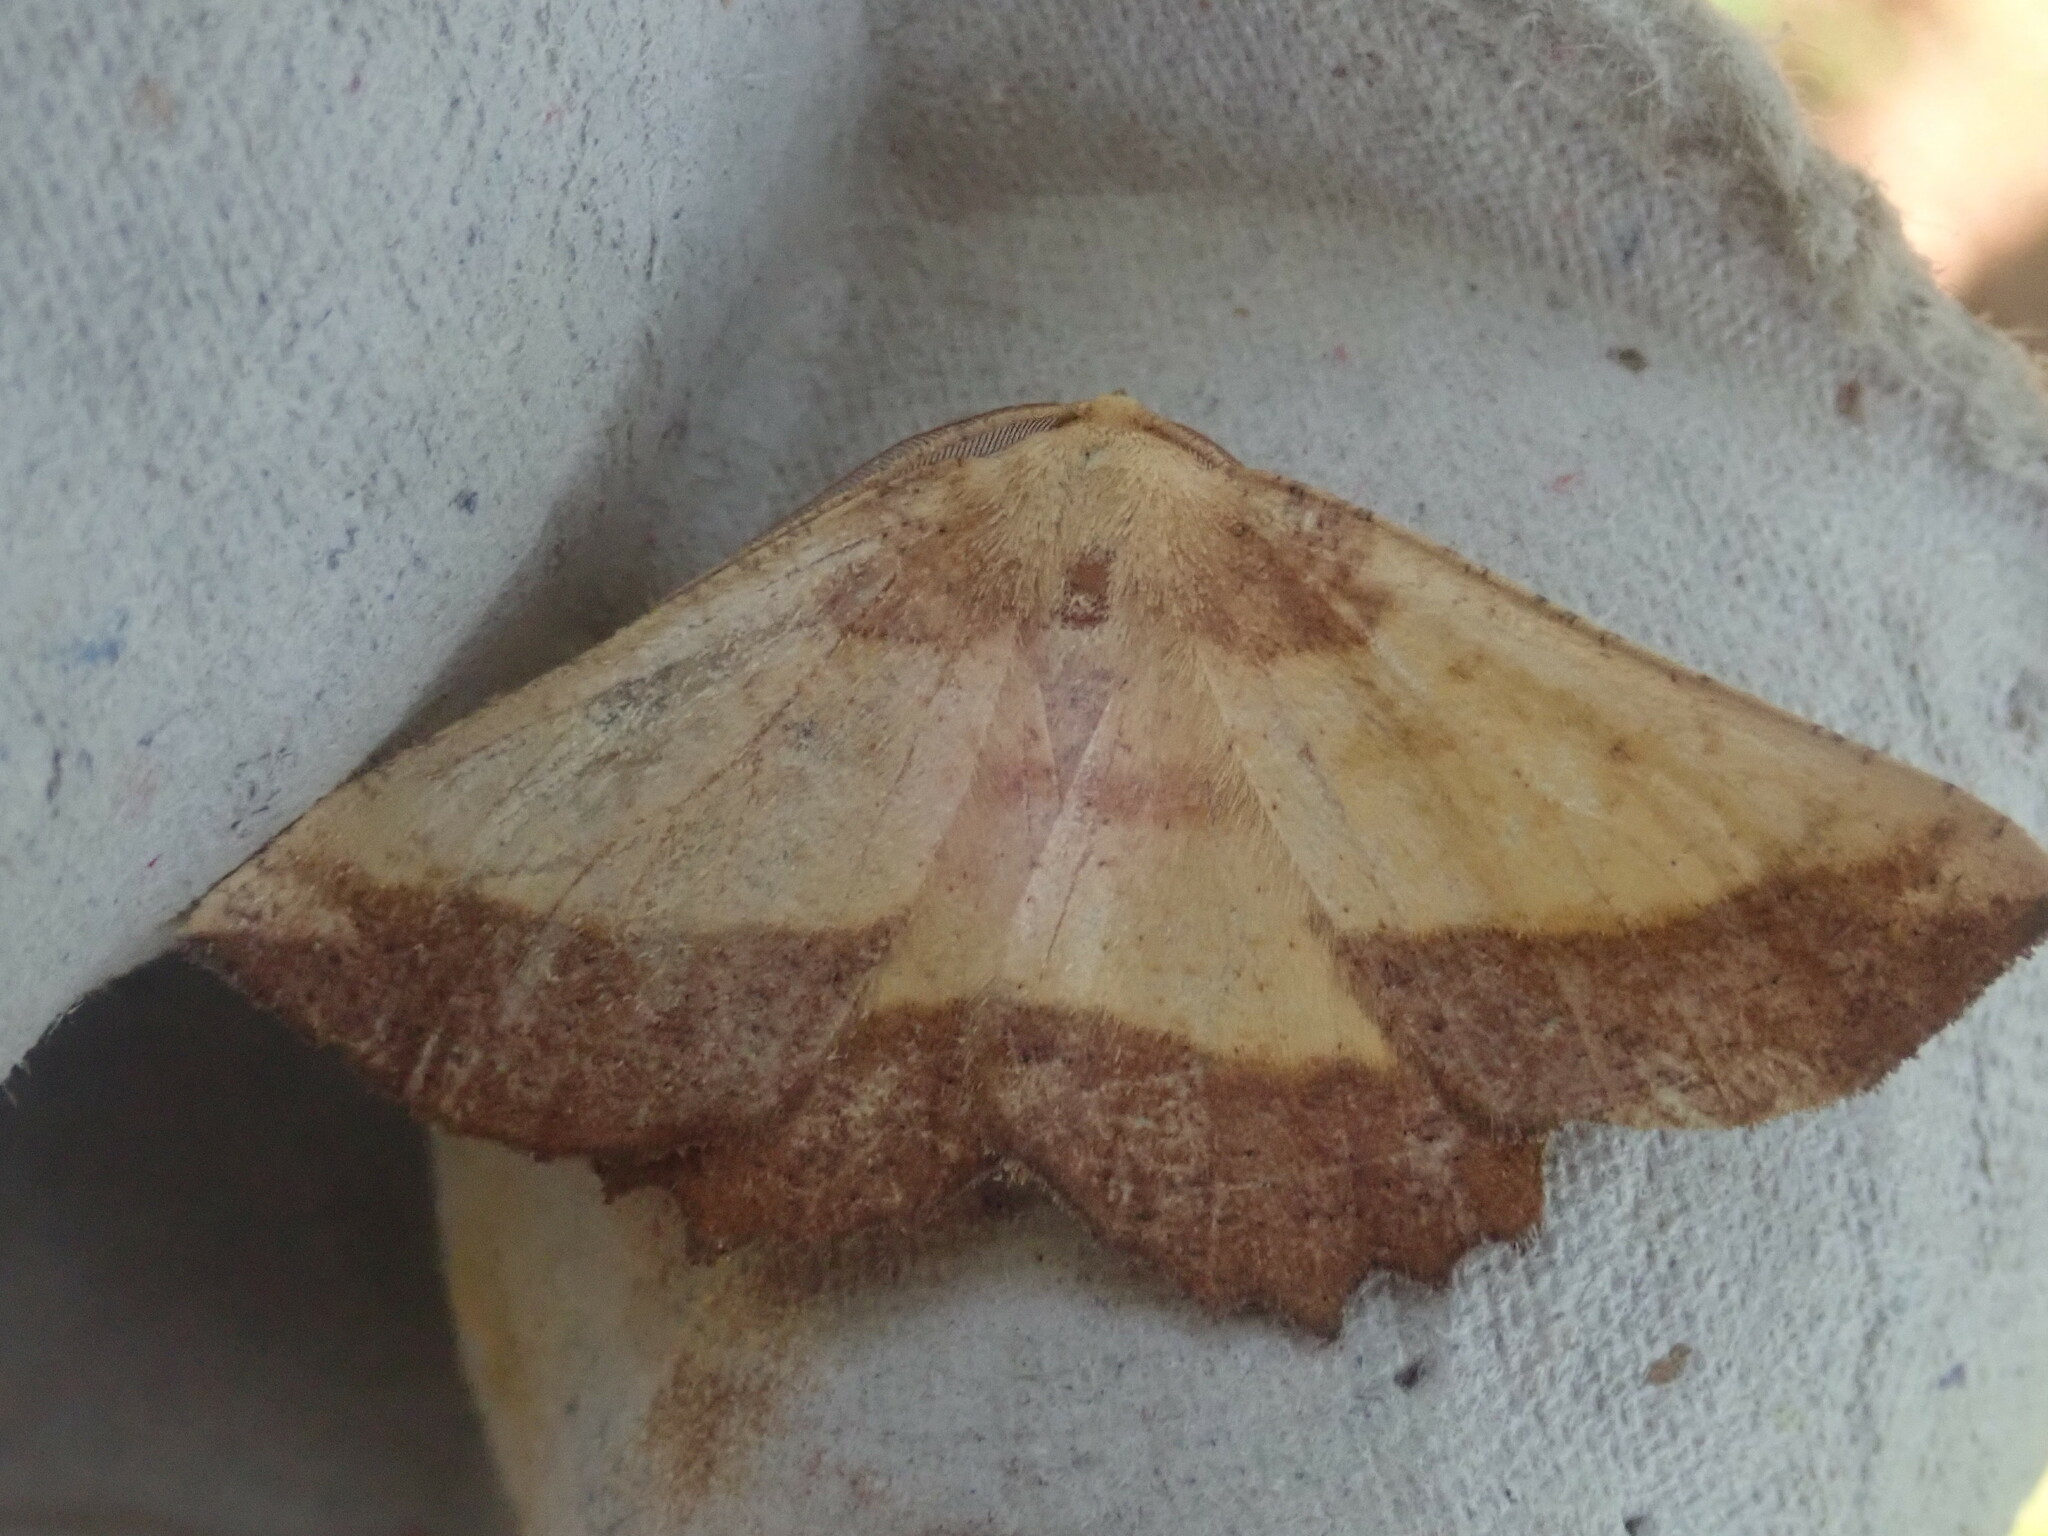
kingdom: Animalia
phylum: Arthropoda
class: Insecta
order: Lepidoptera
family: Geometridae
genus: Euchlaena
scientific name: Euchlaena serrata
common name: Saw wing
